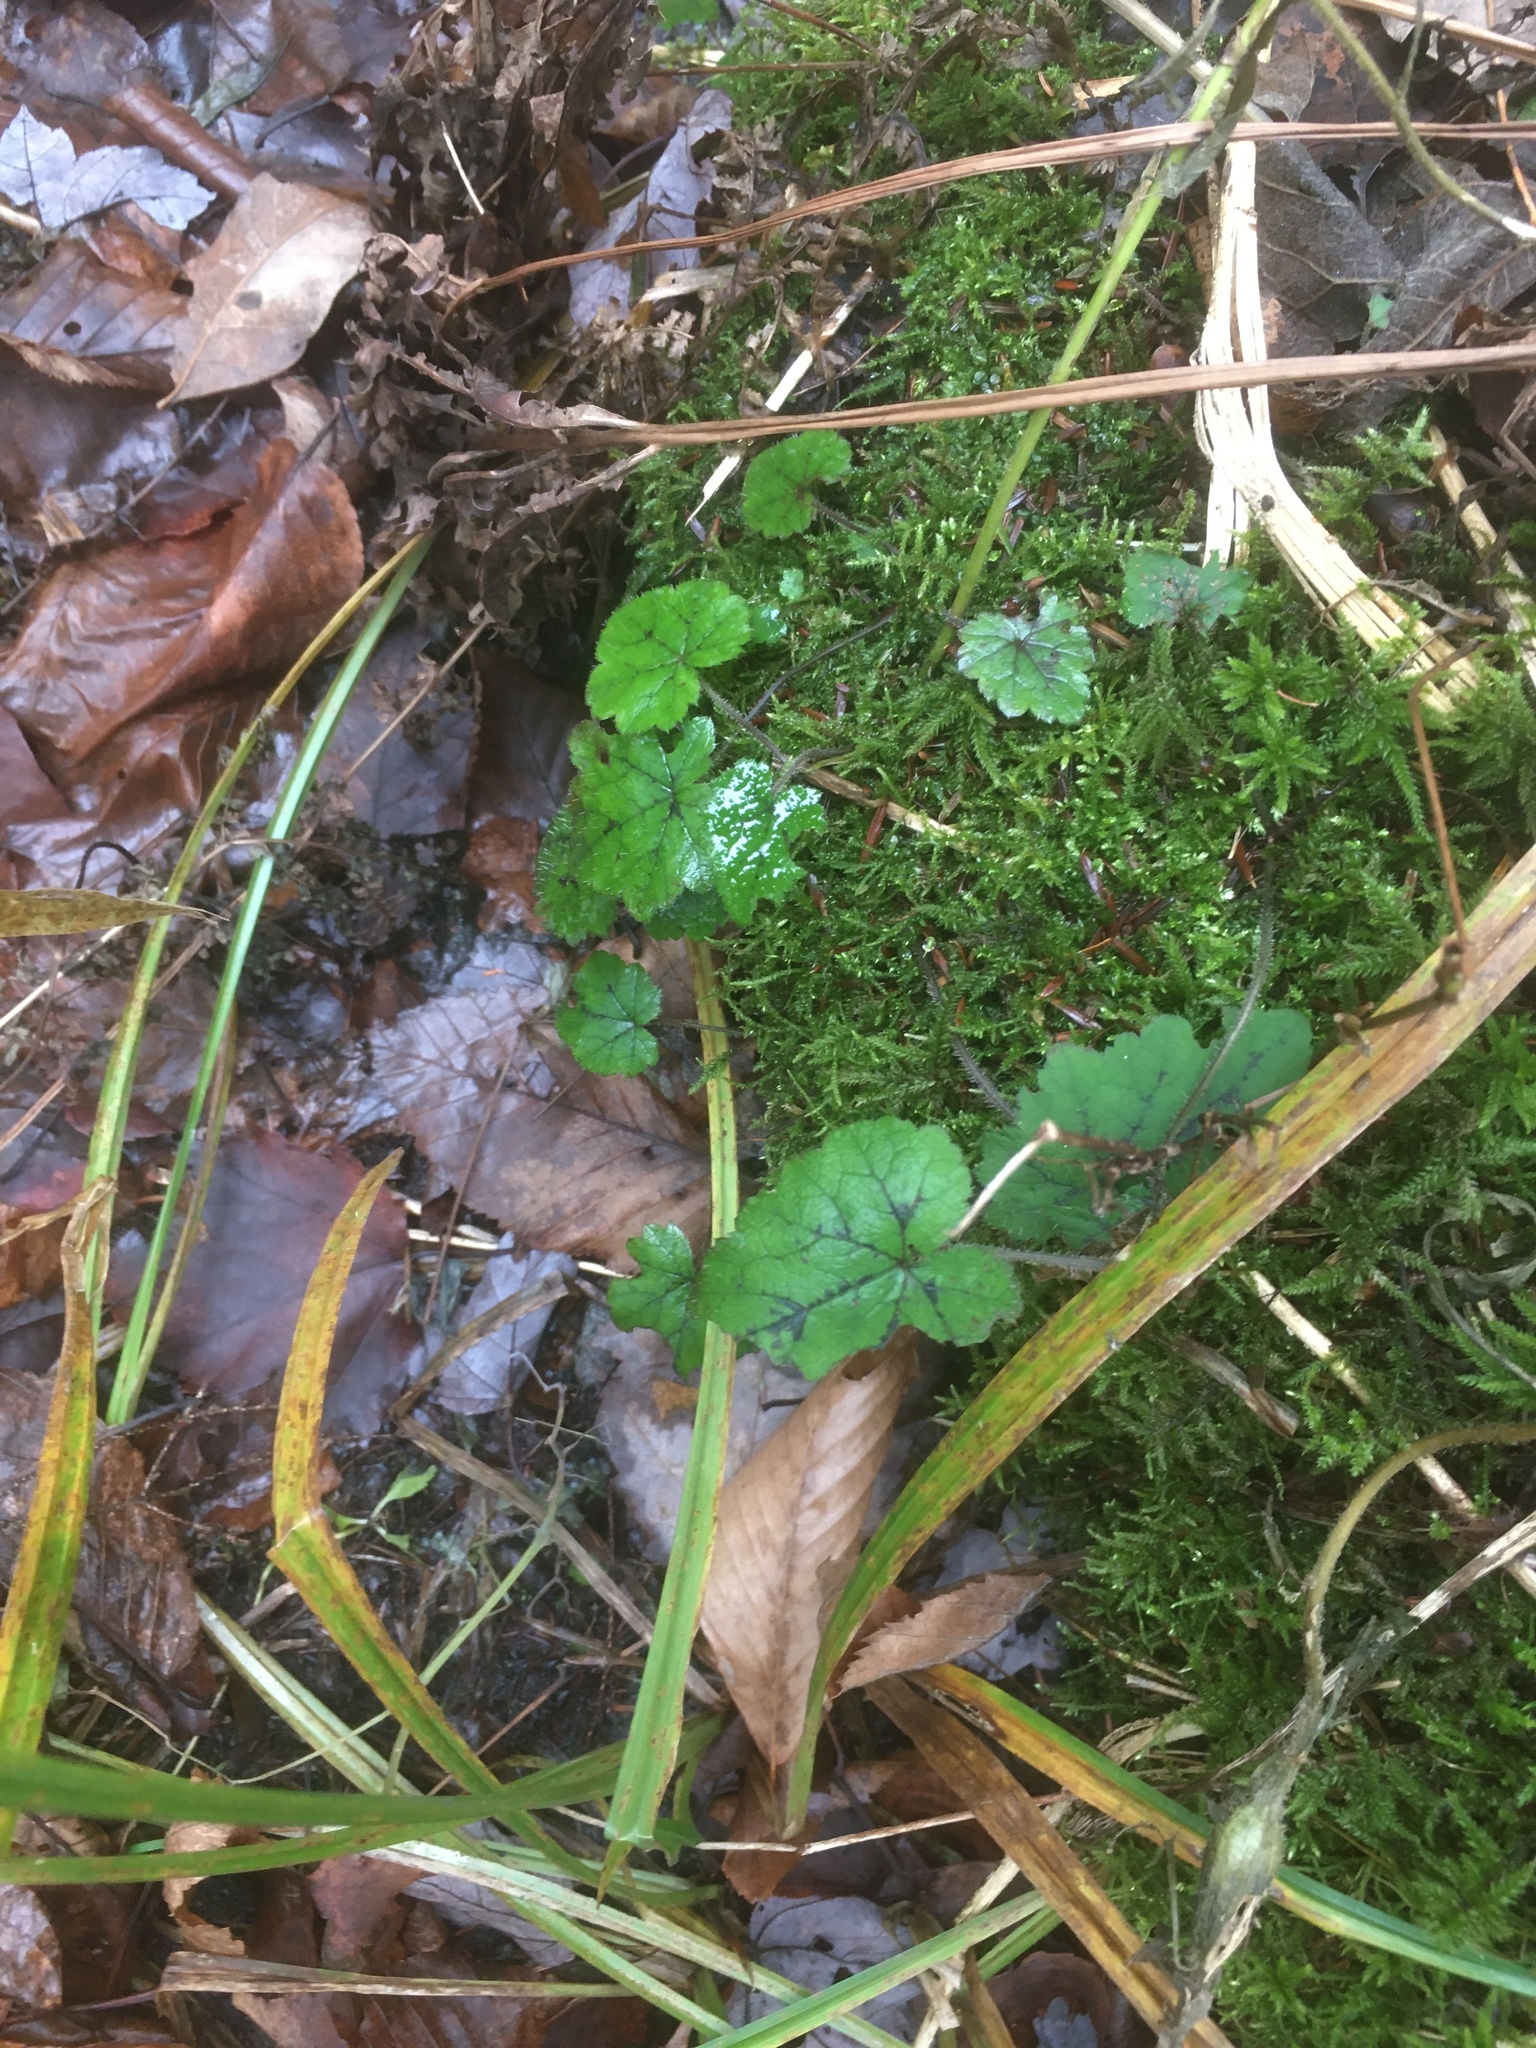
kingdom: Plantae
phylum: Tracheophyta
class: Magnoliopsida
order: Saxifragales
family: Saxifragaceae
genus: Tiarella
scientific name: Tiarella stolonifera
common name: Stoloniferous foamflower
